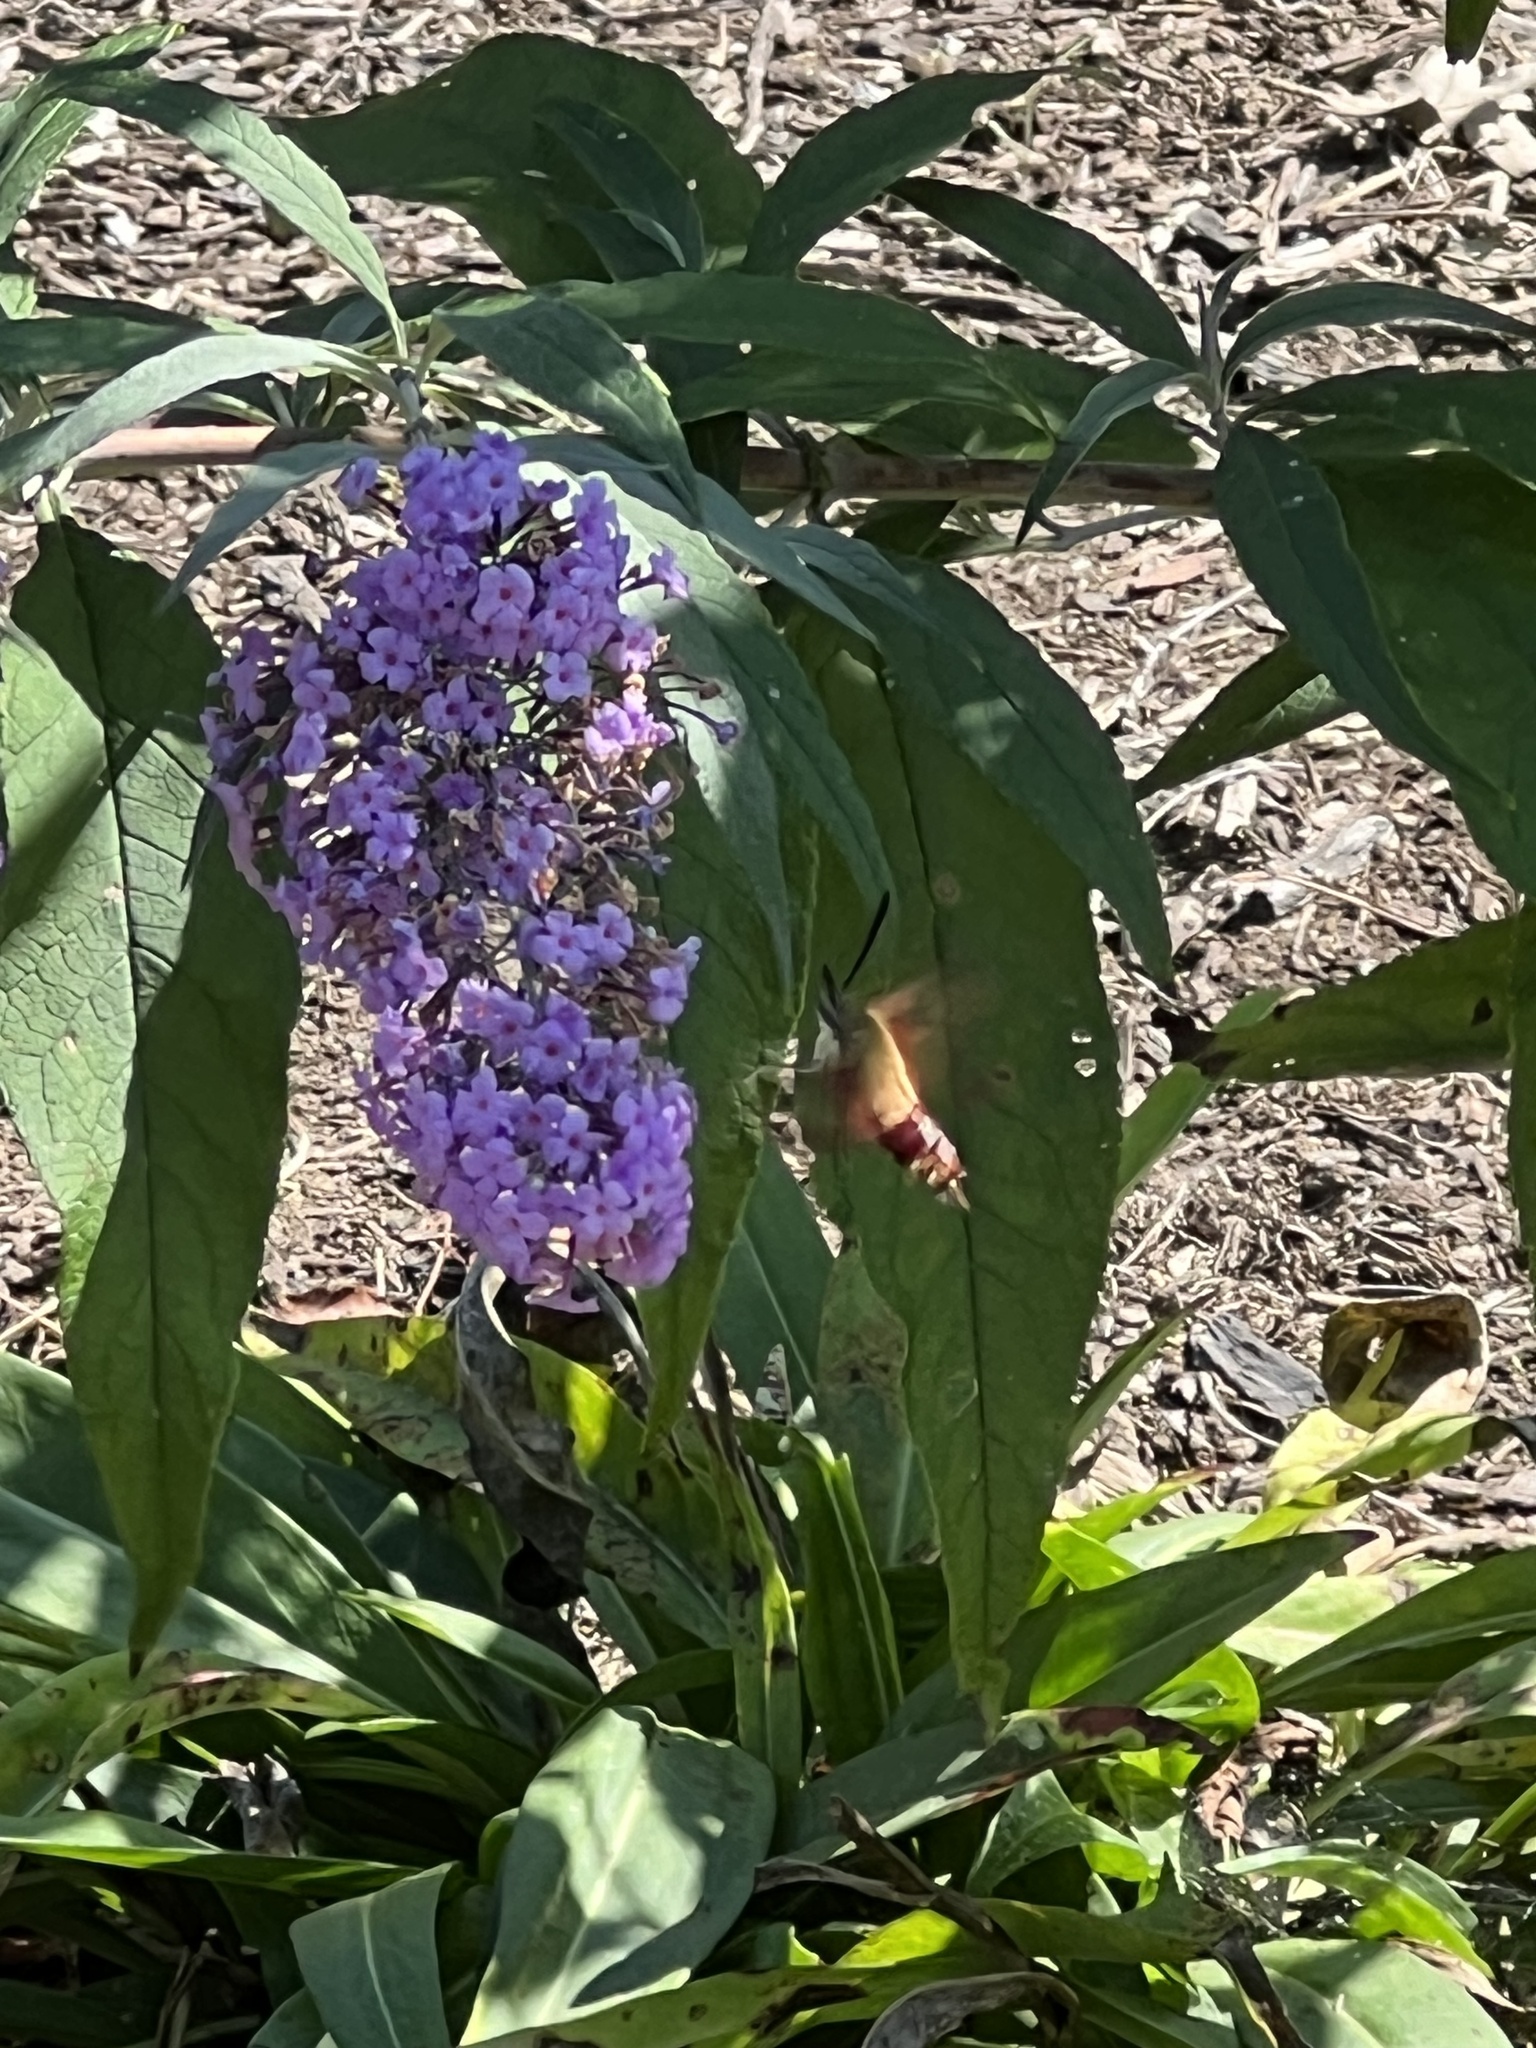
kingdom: Animalia
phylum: Arthropoda
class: Insecta
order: Lepidoptera
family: Sphingidae
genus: Hemaris
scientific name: Hemaris thysbe
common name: Common clear-wing
